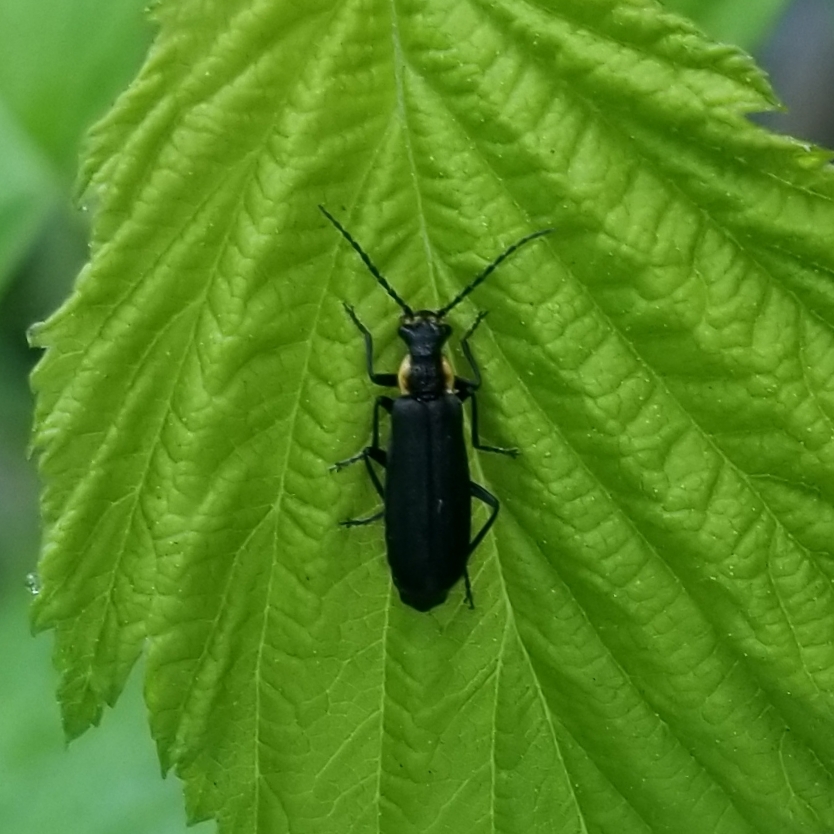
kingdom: Animalia
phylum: Arthropoda
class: Insecta
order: Coleoptera
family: Cantharidae
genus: Podabrus
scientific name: Podabrus rugosulus
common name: Wrinkled soldier beetle
